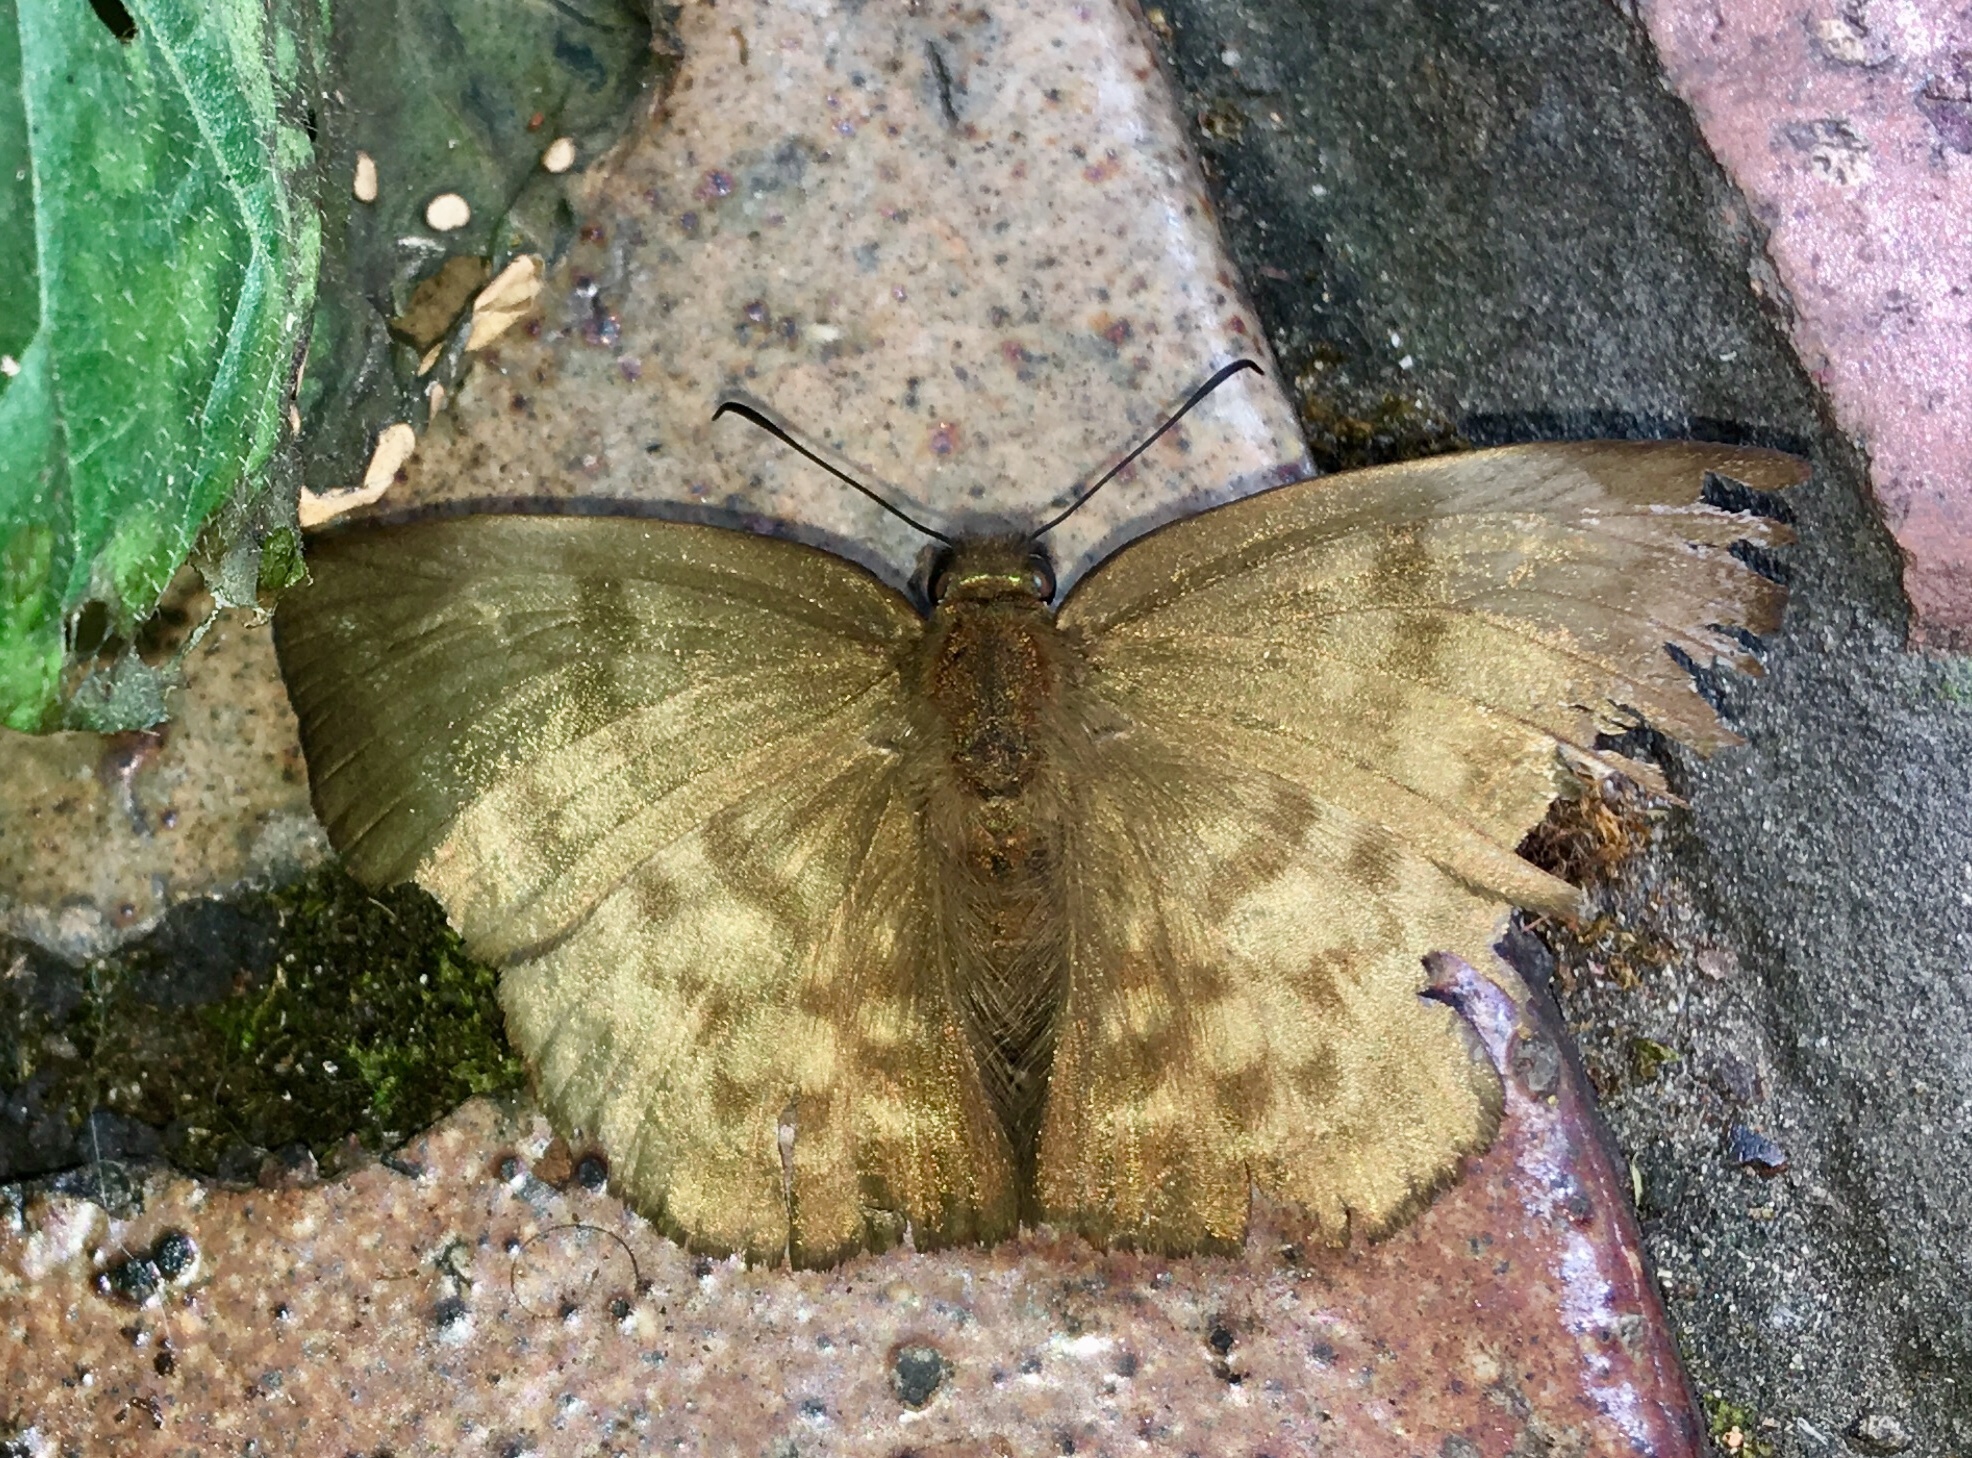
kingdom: Animalia
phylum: Arthropoda
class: Insecta
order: Lepidoptera
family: Hesperiidae
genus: Achlyodes
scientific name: Achlyodes pallida
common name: Pale sicklewing
